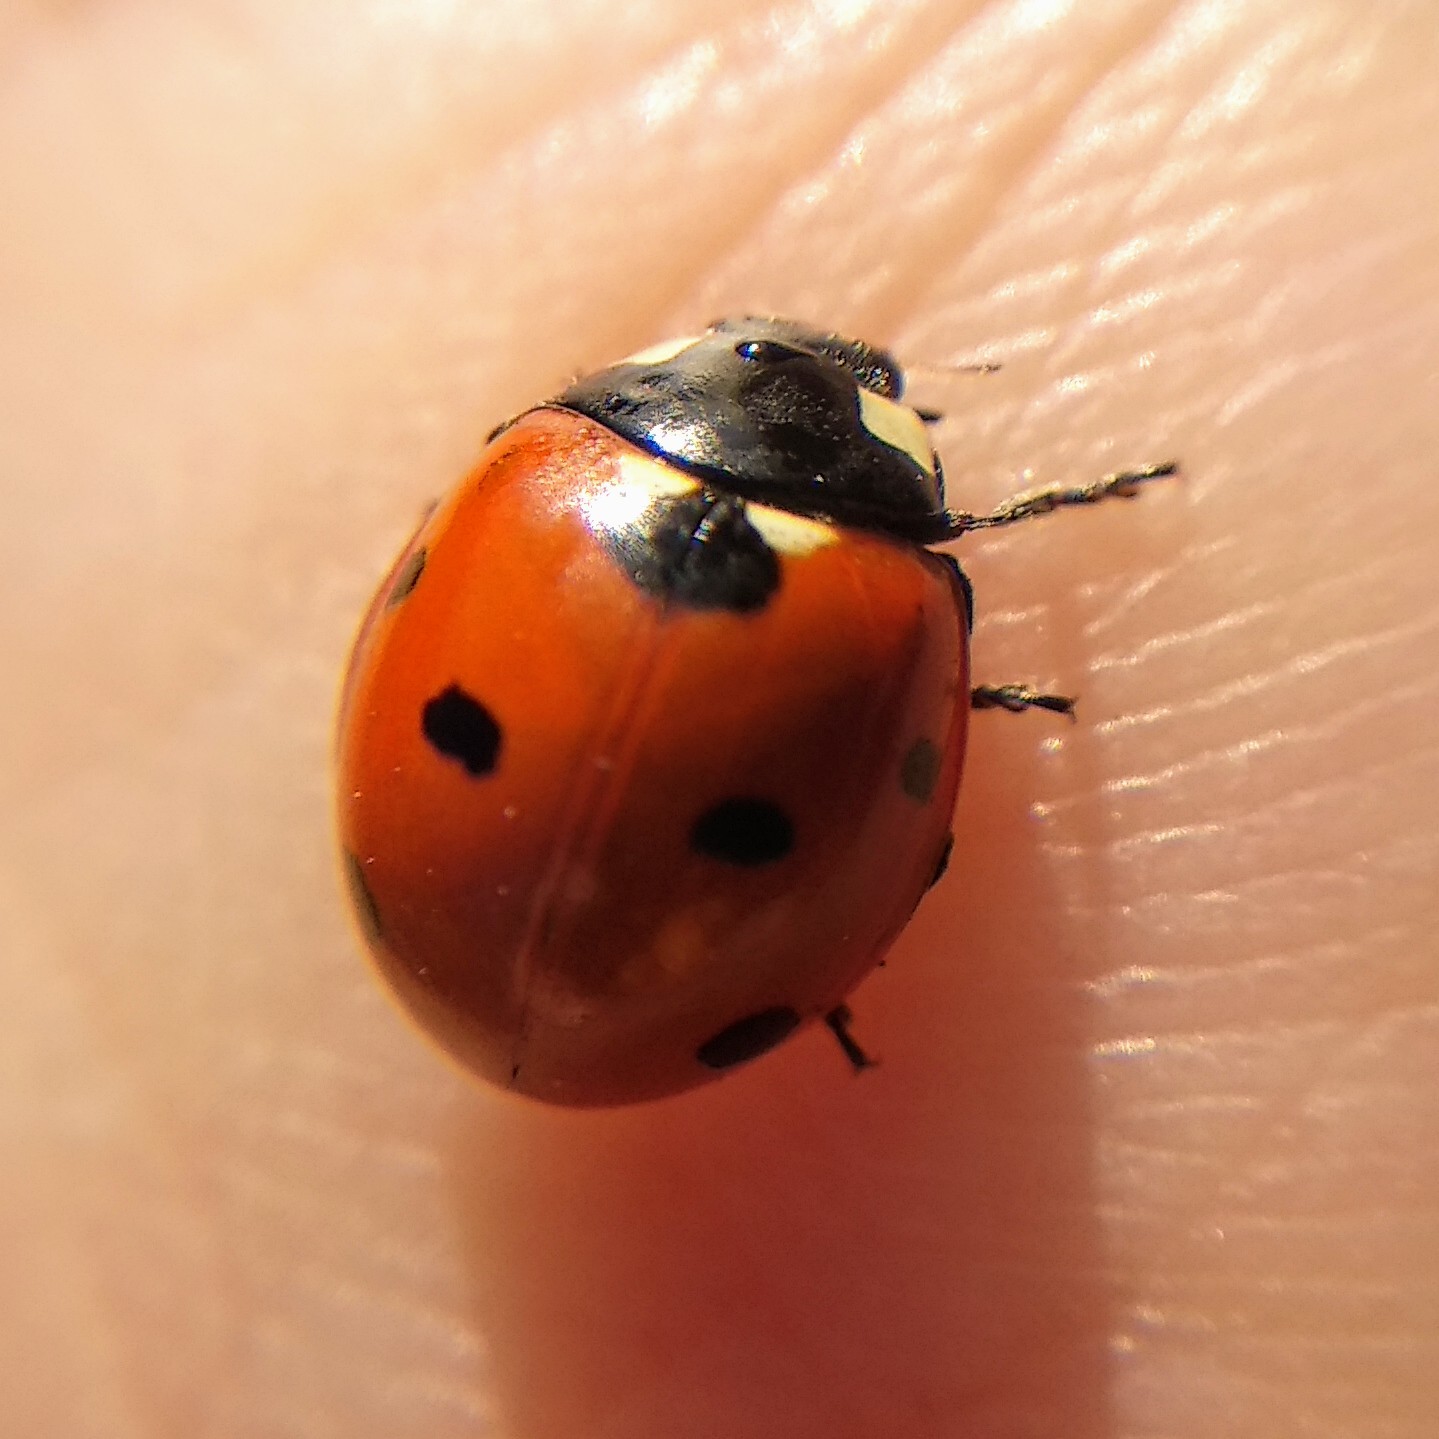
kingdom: Animalia
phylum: Arthropoda
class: Insecta
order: Coleoptera
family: Coccinellidae
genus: Coccinella
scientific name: Coccinella septempunctata
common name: Sevenspotted lady beetle
